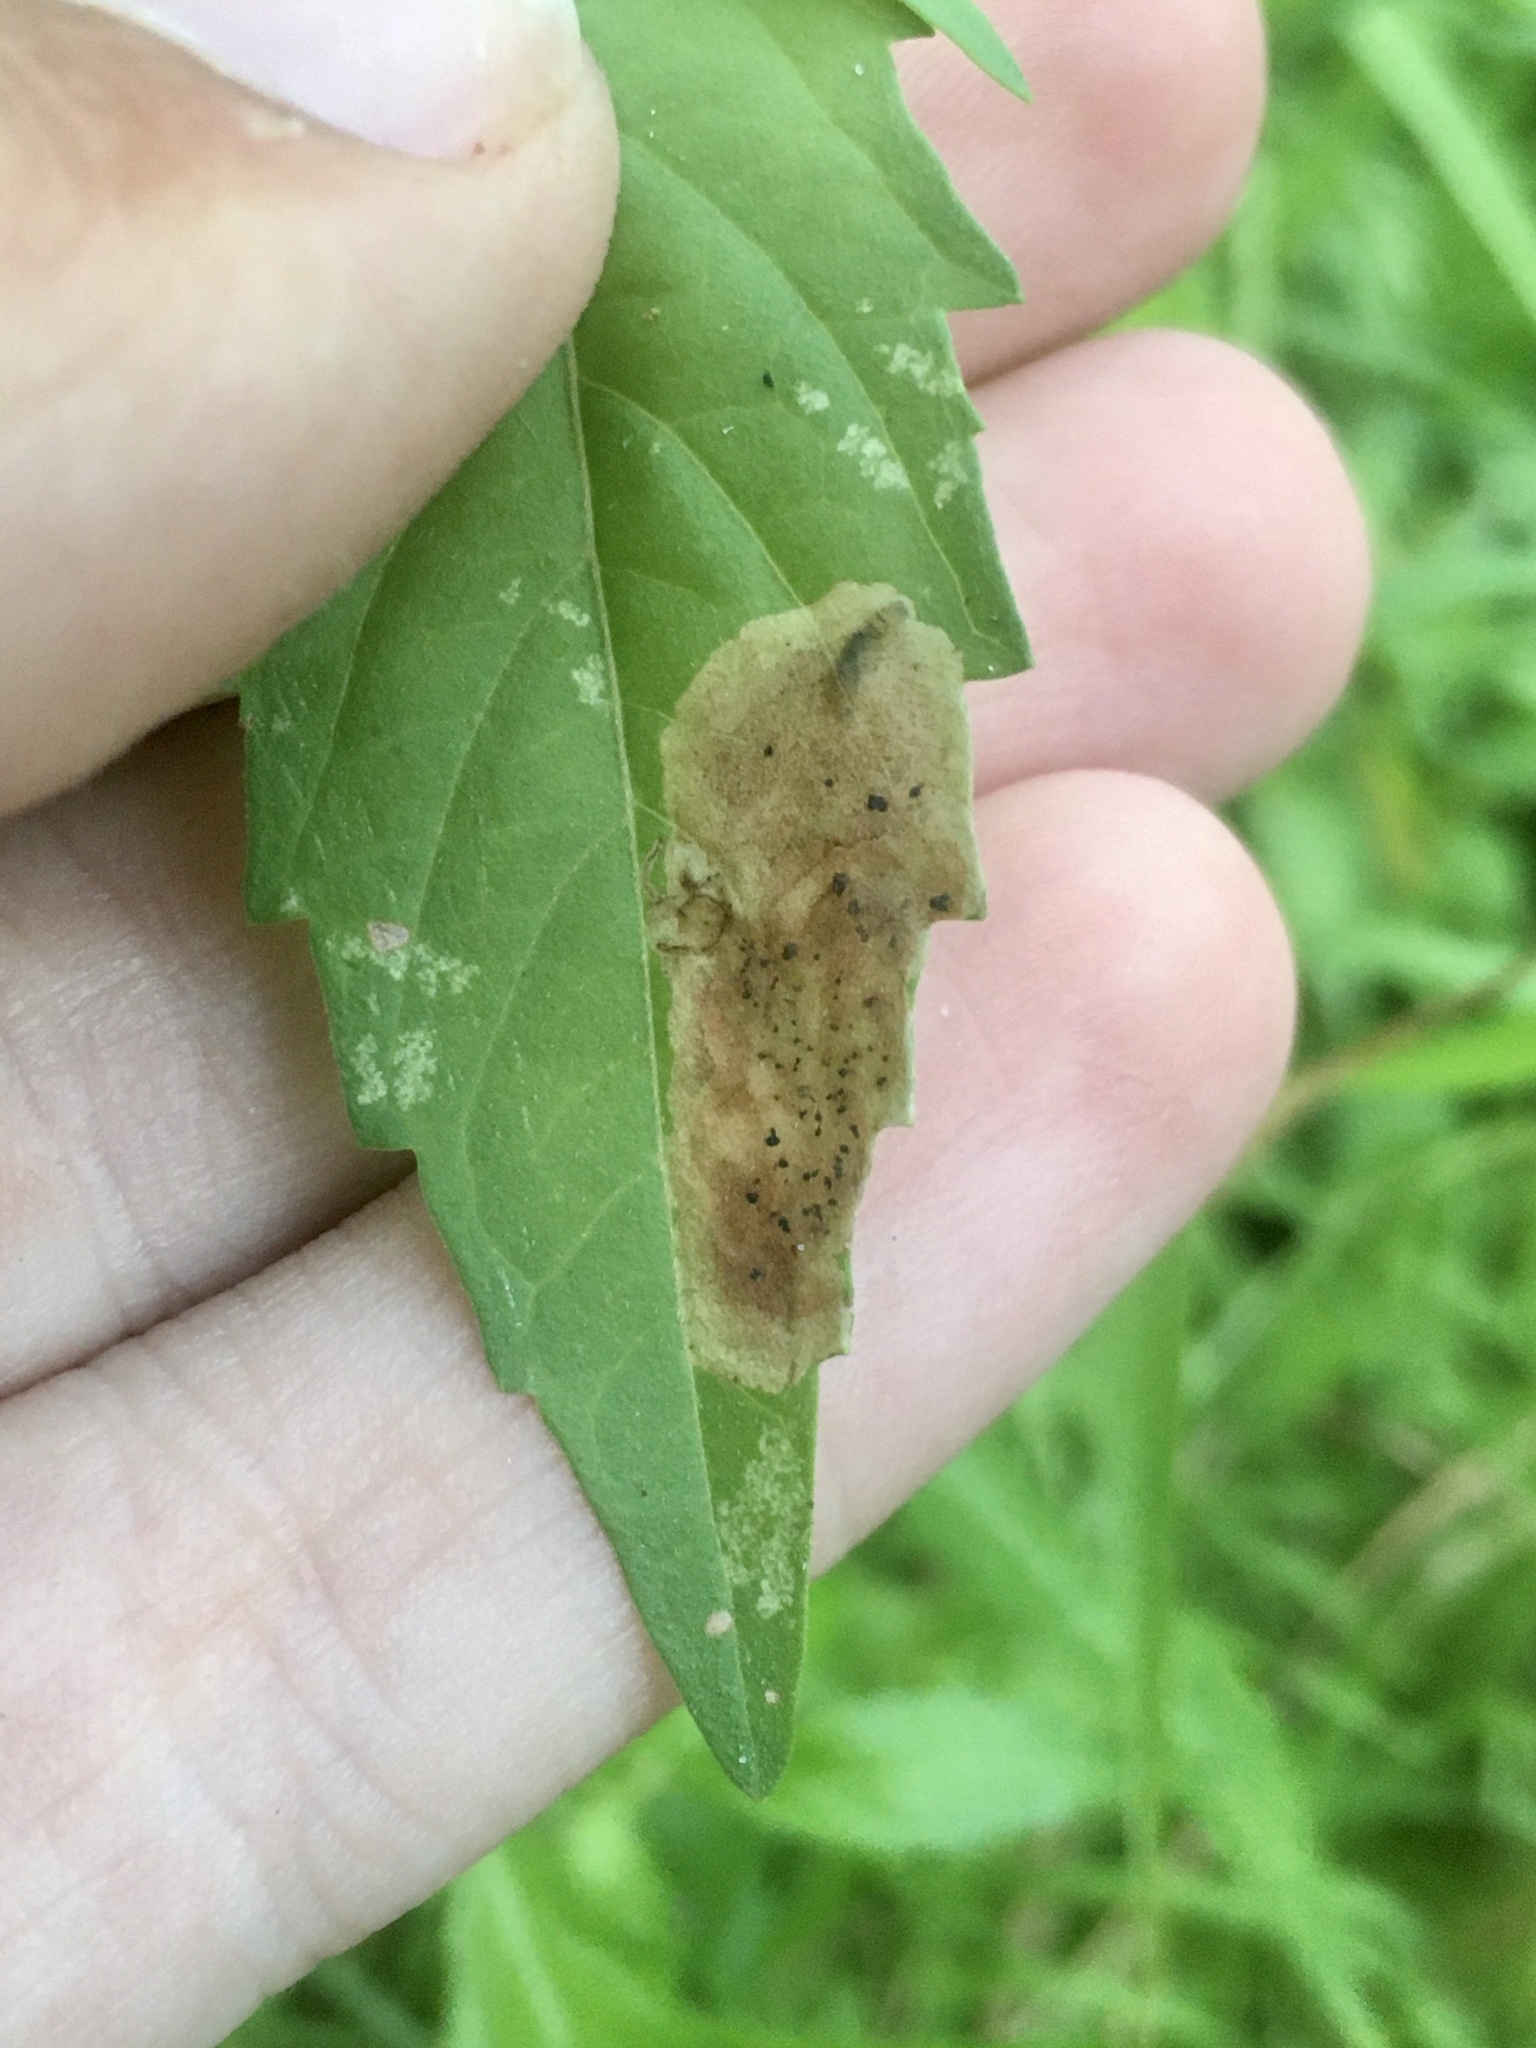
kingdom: Animalia
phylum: Arthropoda
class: Insecta
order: Diptera
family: Agromyzidae
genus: Calycomyza
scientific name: Calycomyza menthae
